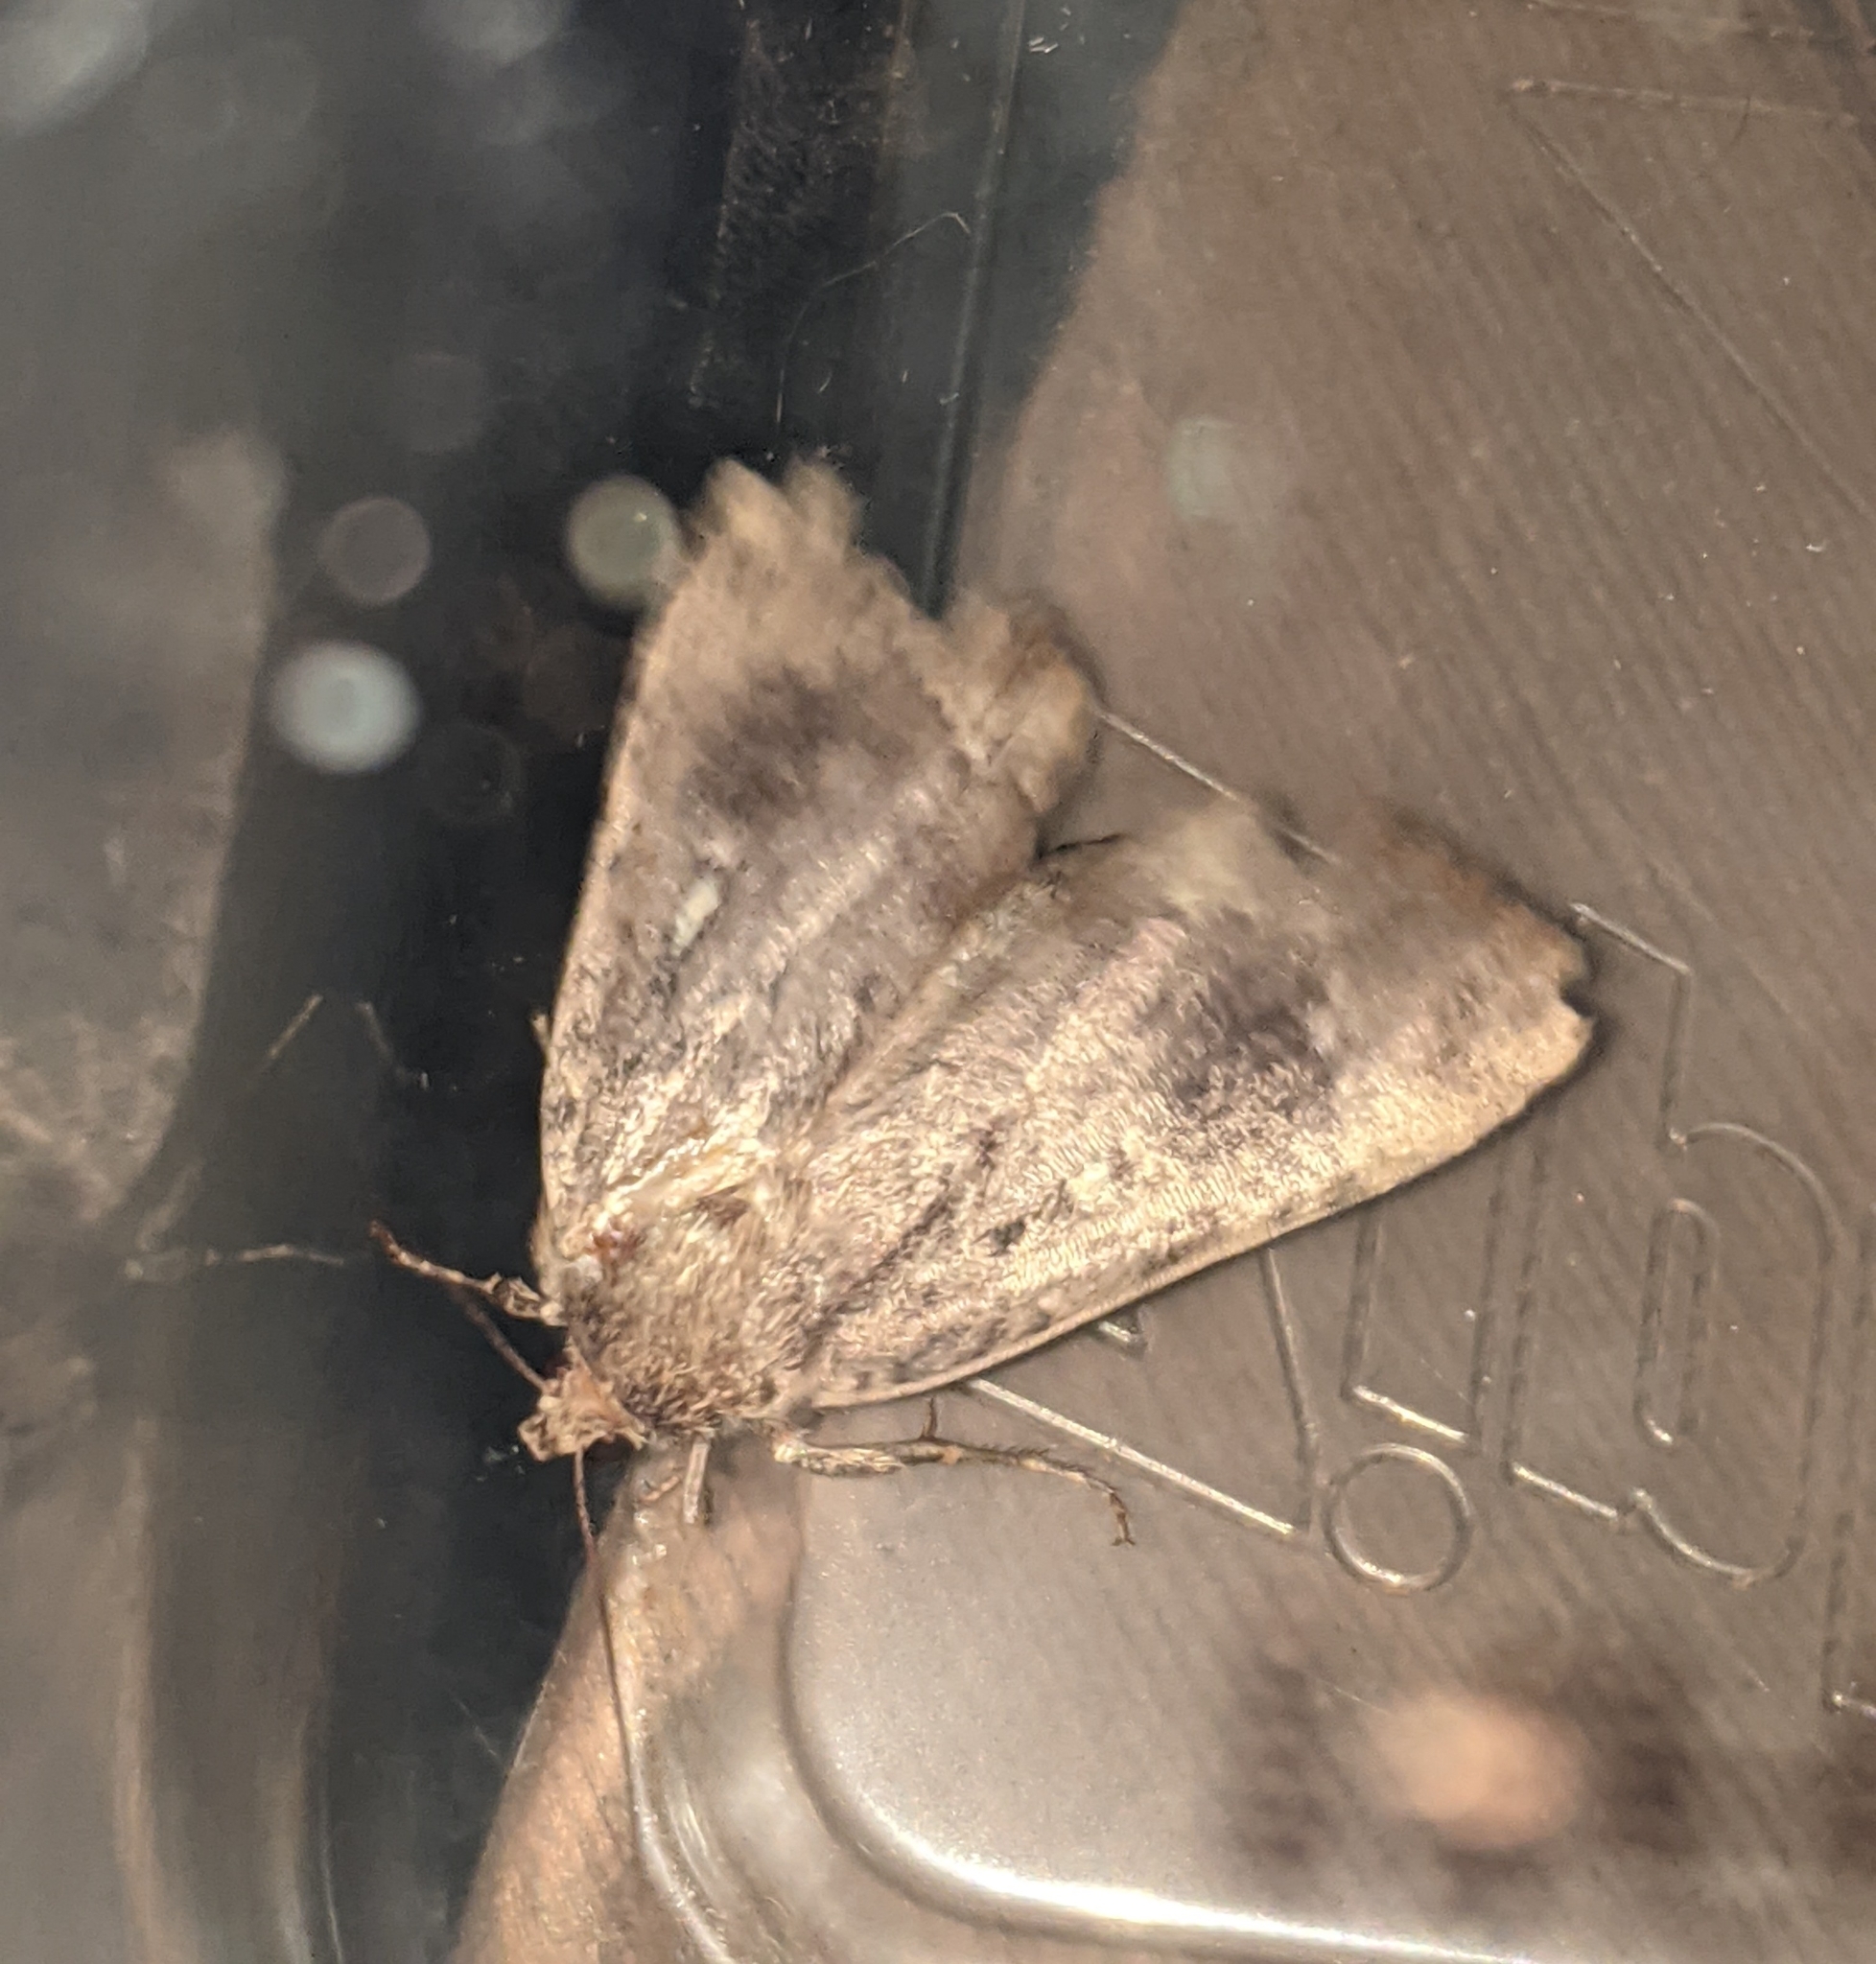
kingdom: Animalia
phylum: Arthropoda
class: Insecta
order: Lepidoptera
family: Noctuidae
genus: Amphipyra
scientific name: Amphipyra pyramidoides
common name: American copper underwing
